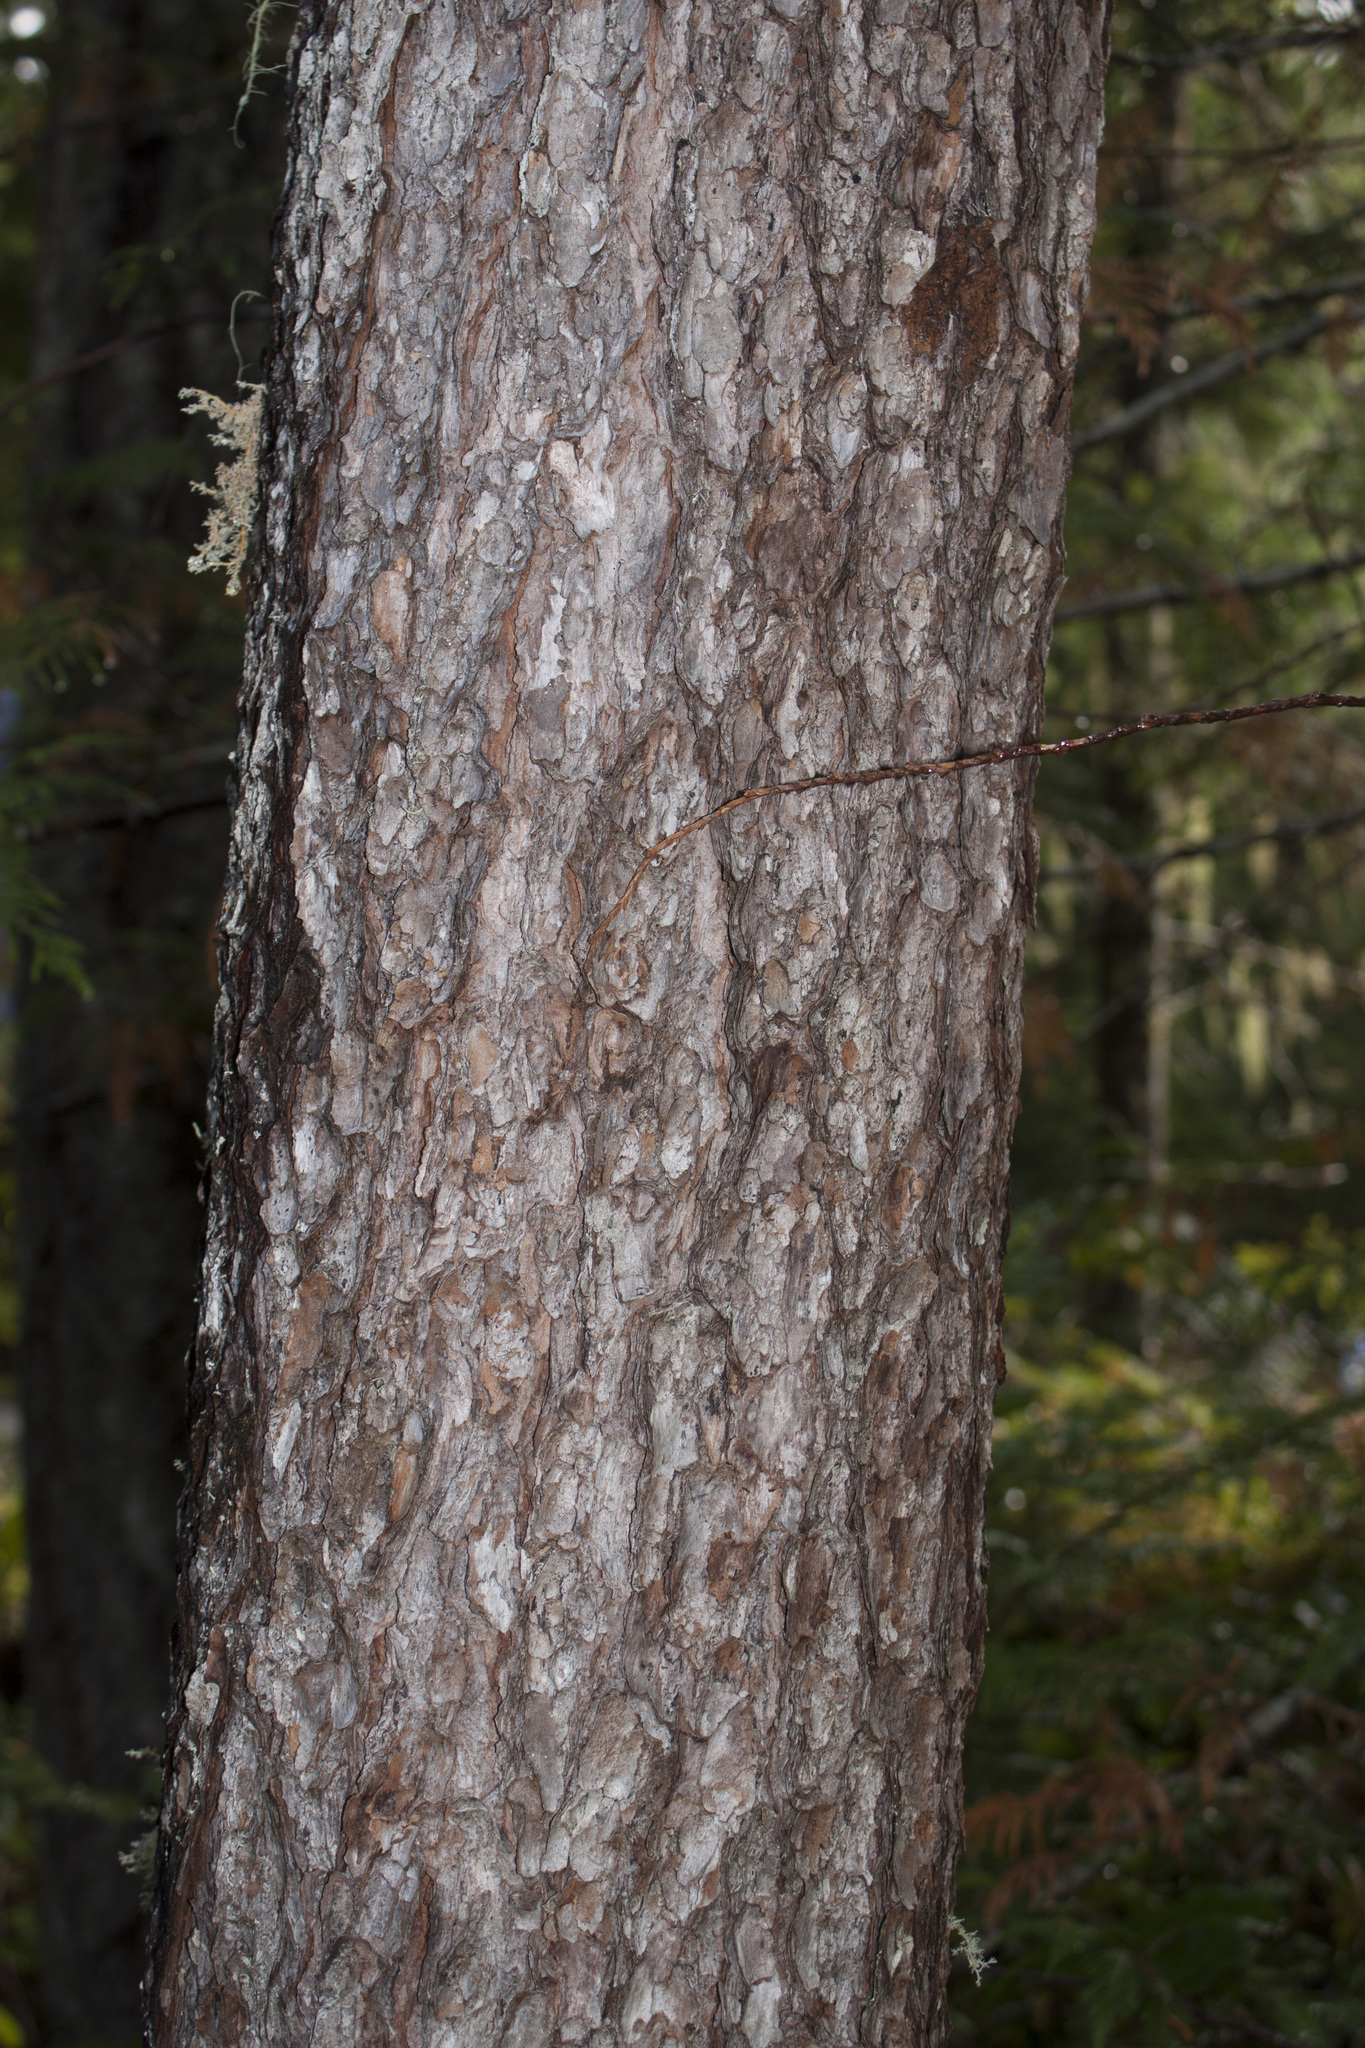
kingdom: Plantae
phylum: Tracheophyta
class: Pinopsida
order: Pinales
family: Pinaceae
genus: Pinus
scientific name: Pinus contorta
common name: Lodgepole pine
